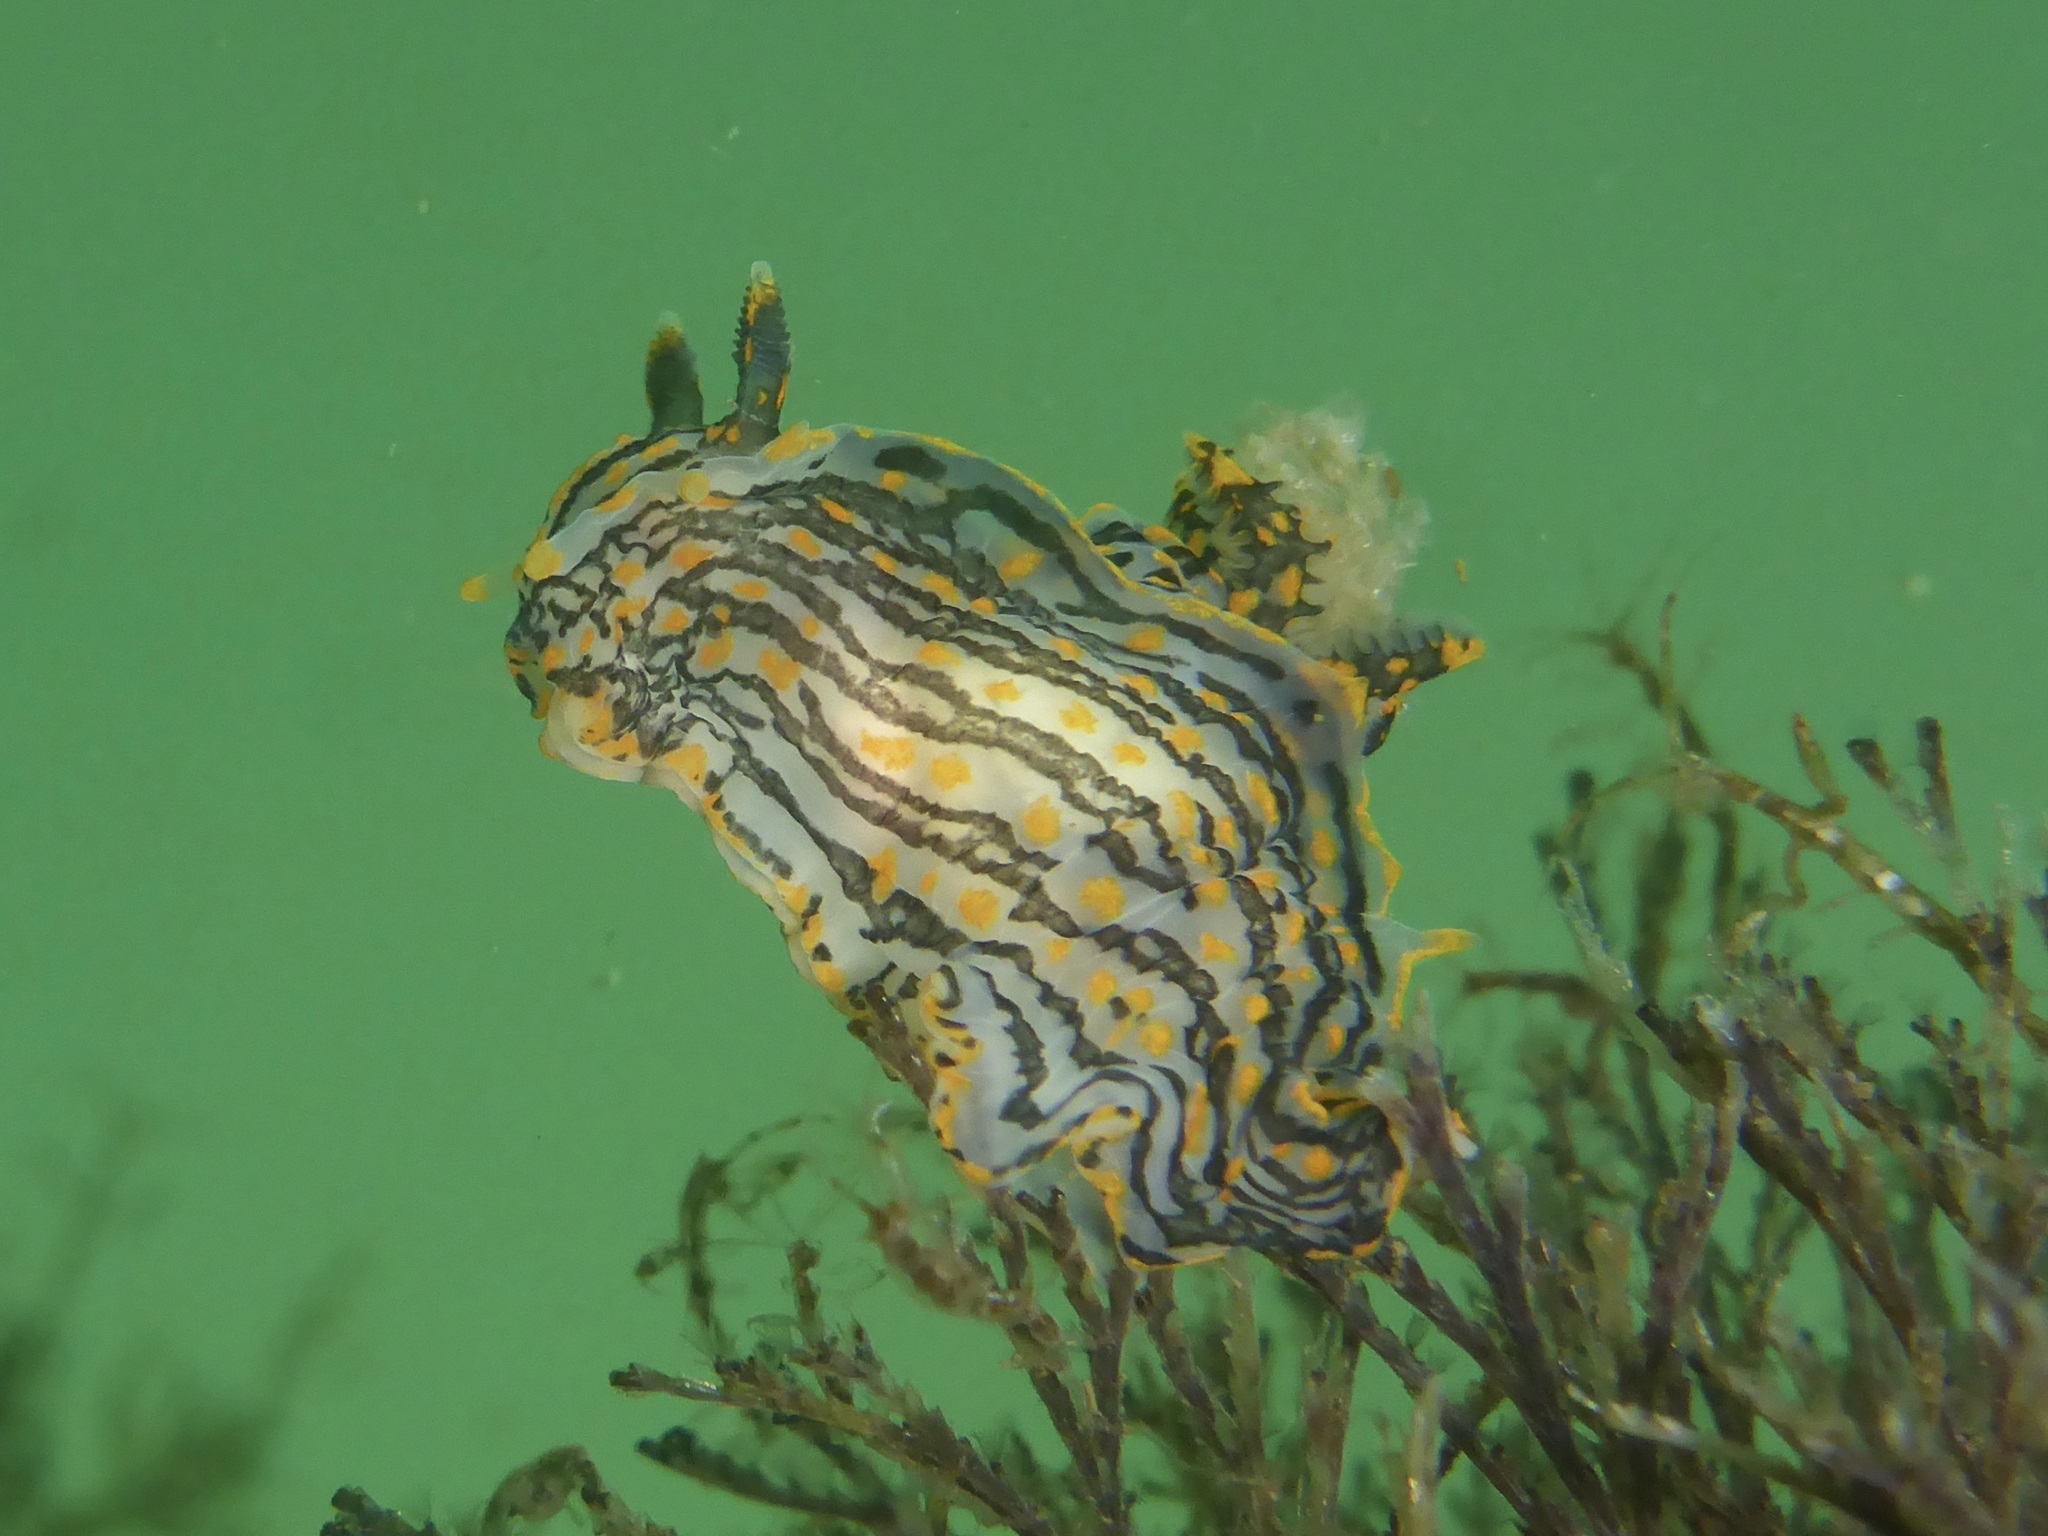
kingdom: Animalia
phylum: Mollusca
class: Gastropoda
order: Nudibranchia
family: Polyceridae
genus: Polycera
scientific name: Polycera atra
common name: Orange-spike polycera
